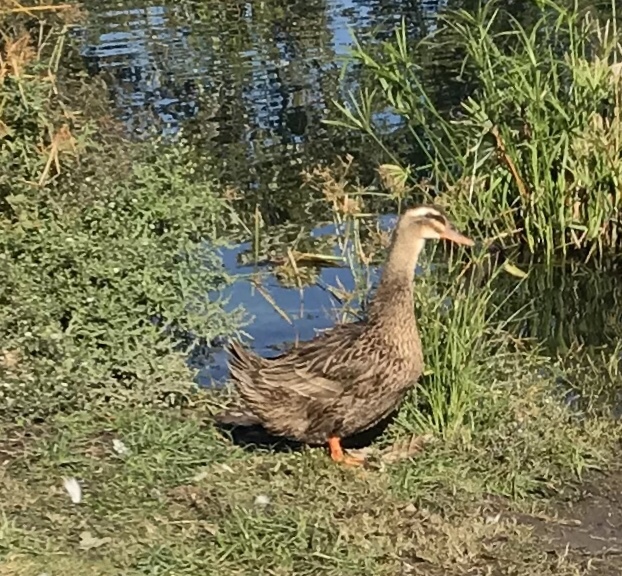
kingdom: Animalia
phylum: Chordata
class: Aves
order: Anseriformes
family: Anatidae
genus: Anas
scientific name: Anas platyrhynchos
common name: Mallard
